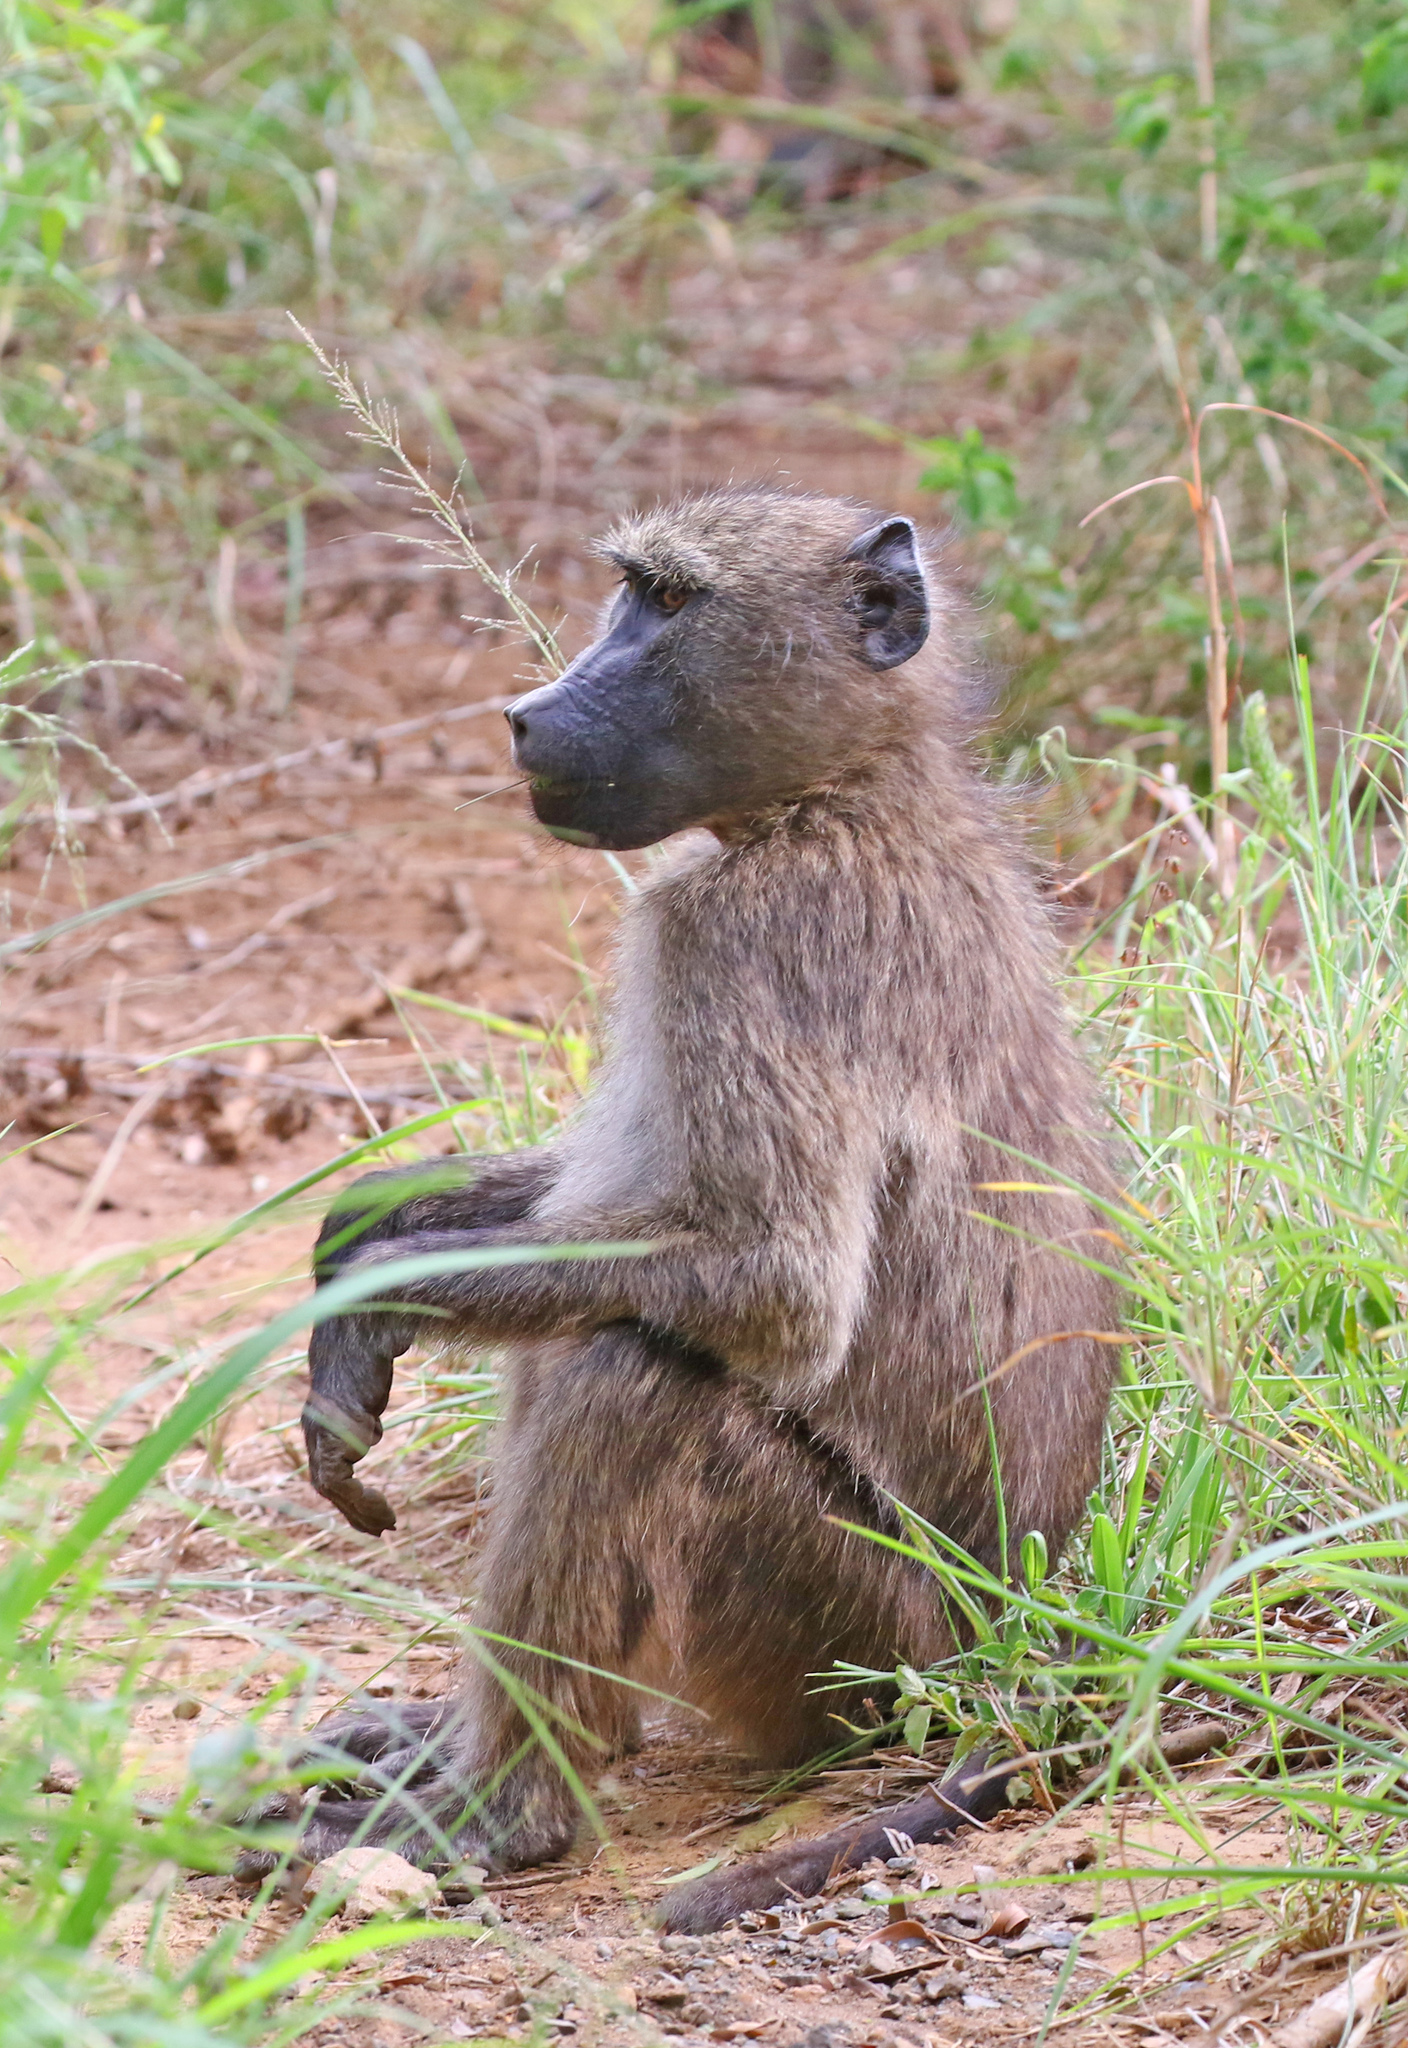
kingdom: Animalia
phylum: Chordata
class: Mammalia
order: Primates
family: Cercopithecidae
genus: Papio
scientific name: Papio ursinus
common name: Chacma baboon
